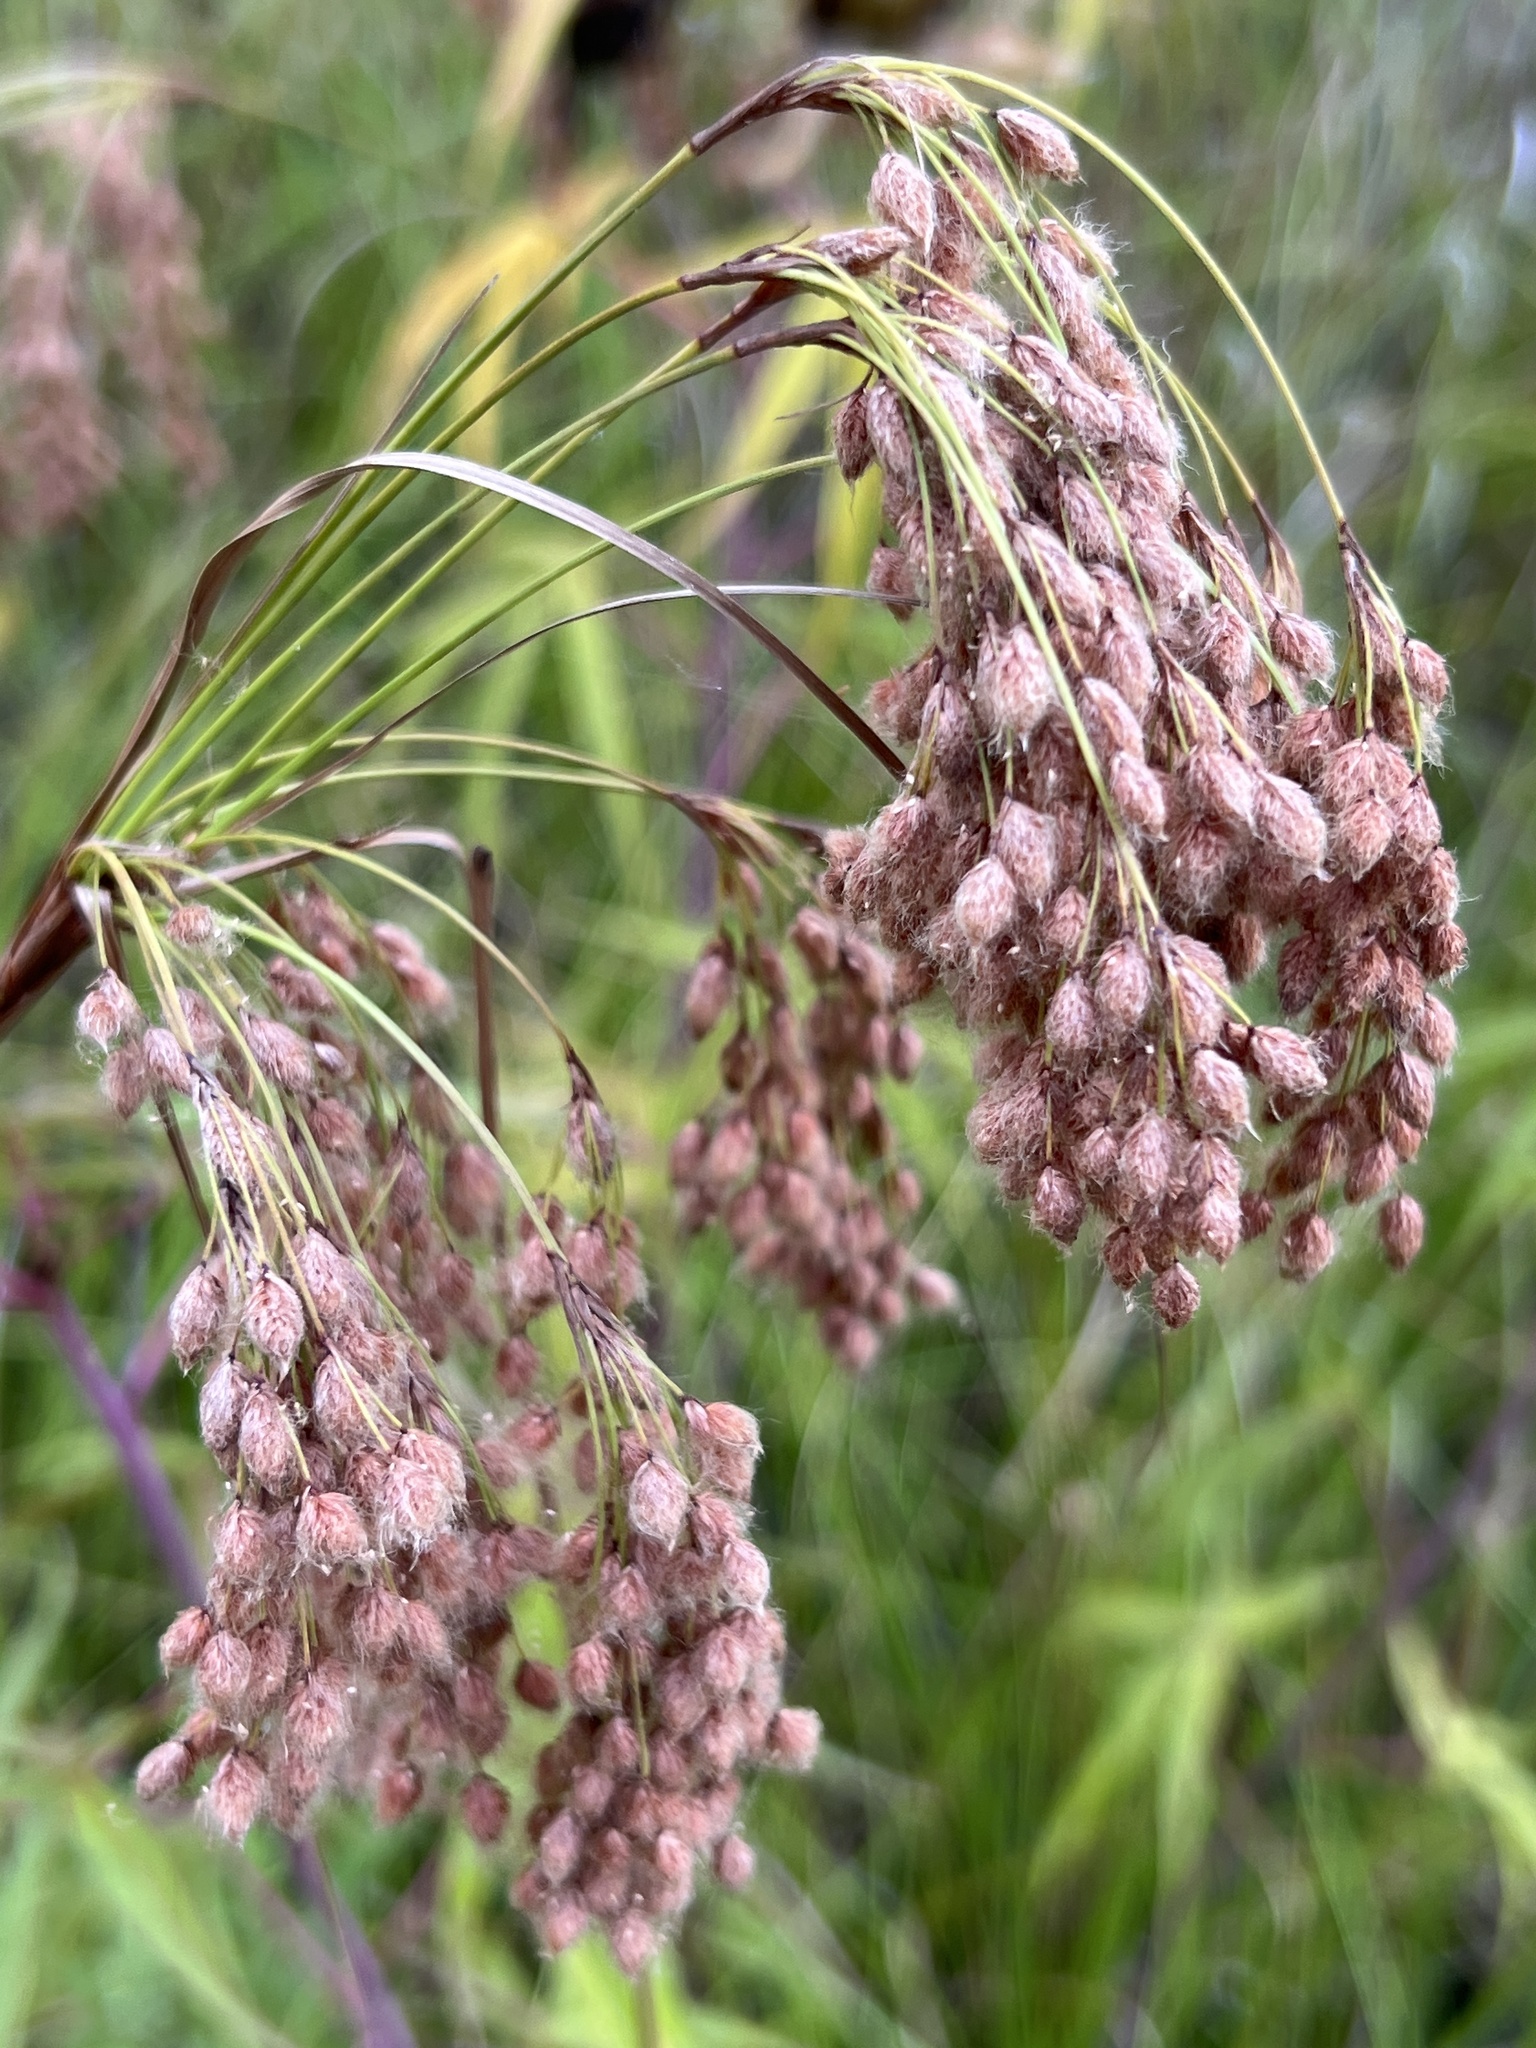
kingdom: Plantae
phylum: Tracheophyta
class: Liliopsida
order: Poales
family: Cyperaceae
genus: Scirpus
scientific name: Scirpus cyperinus
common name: Black-sheathed bulrush
